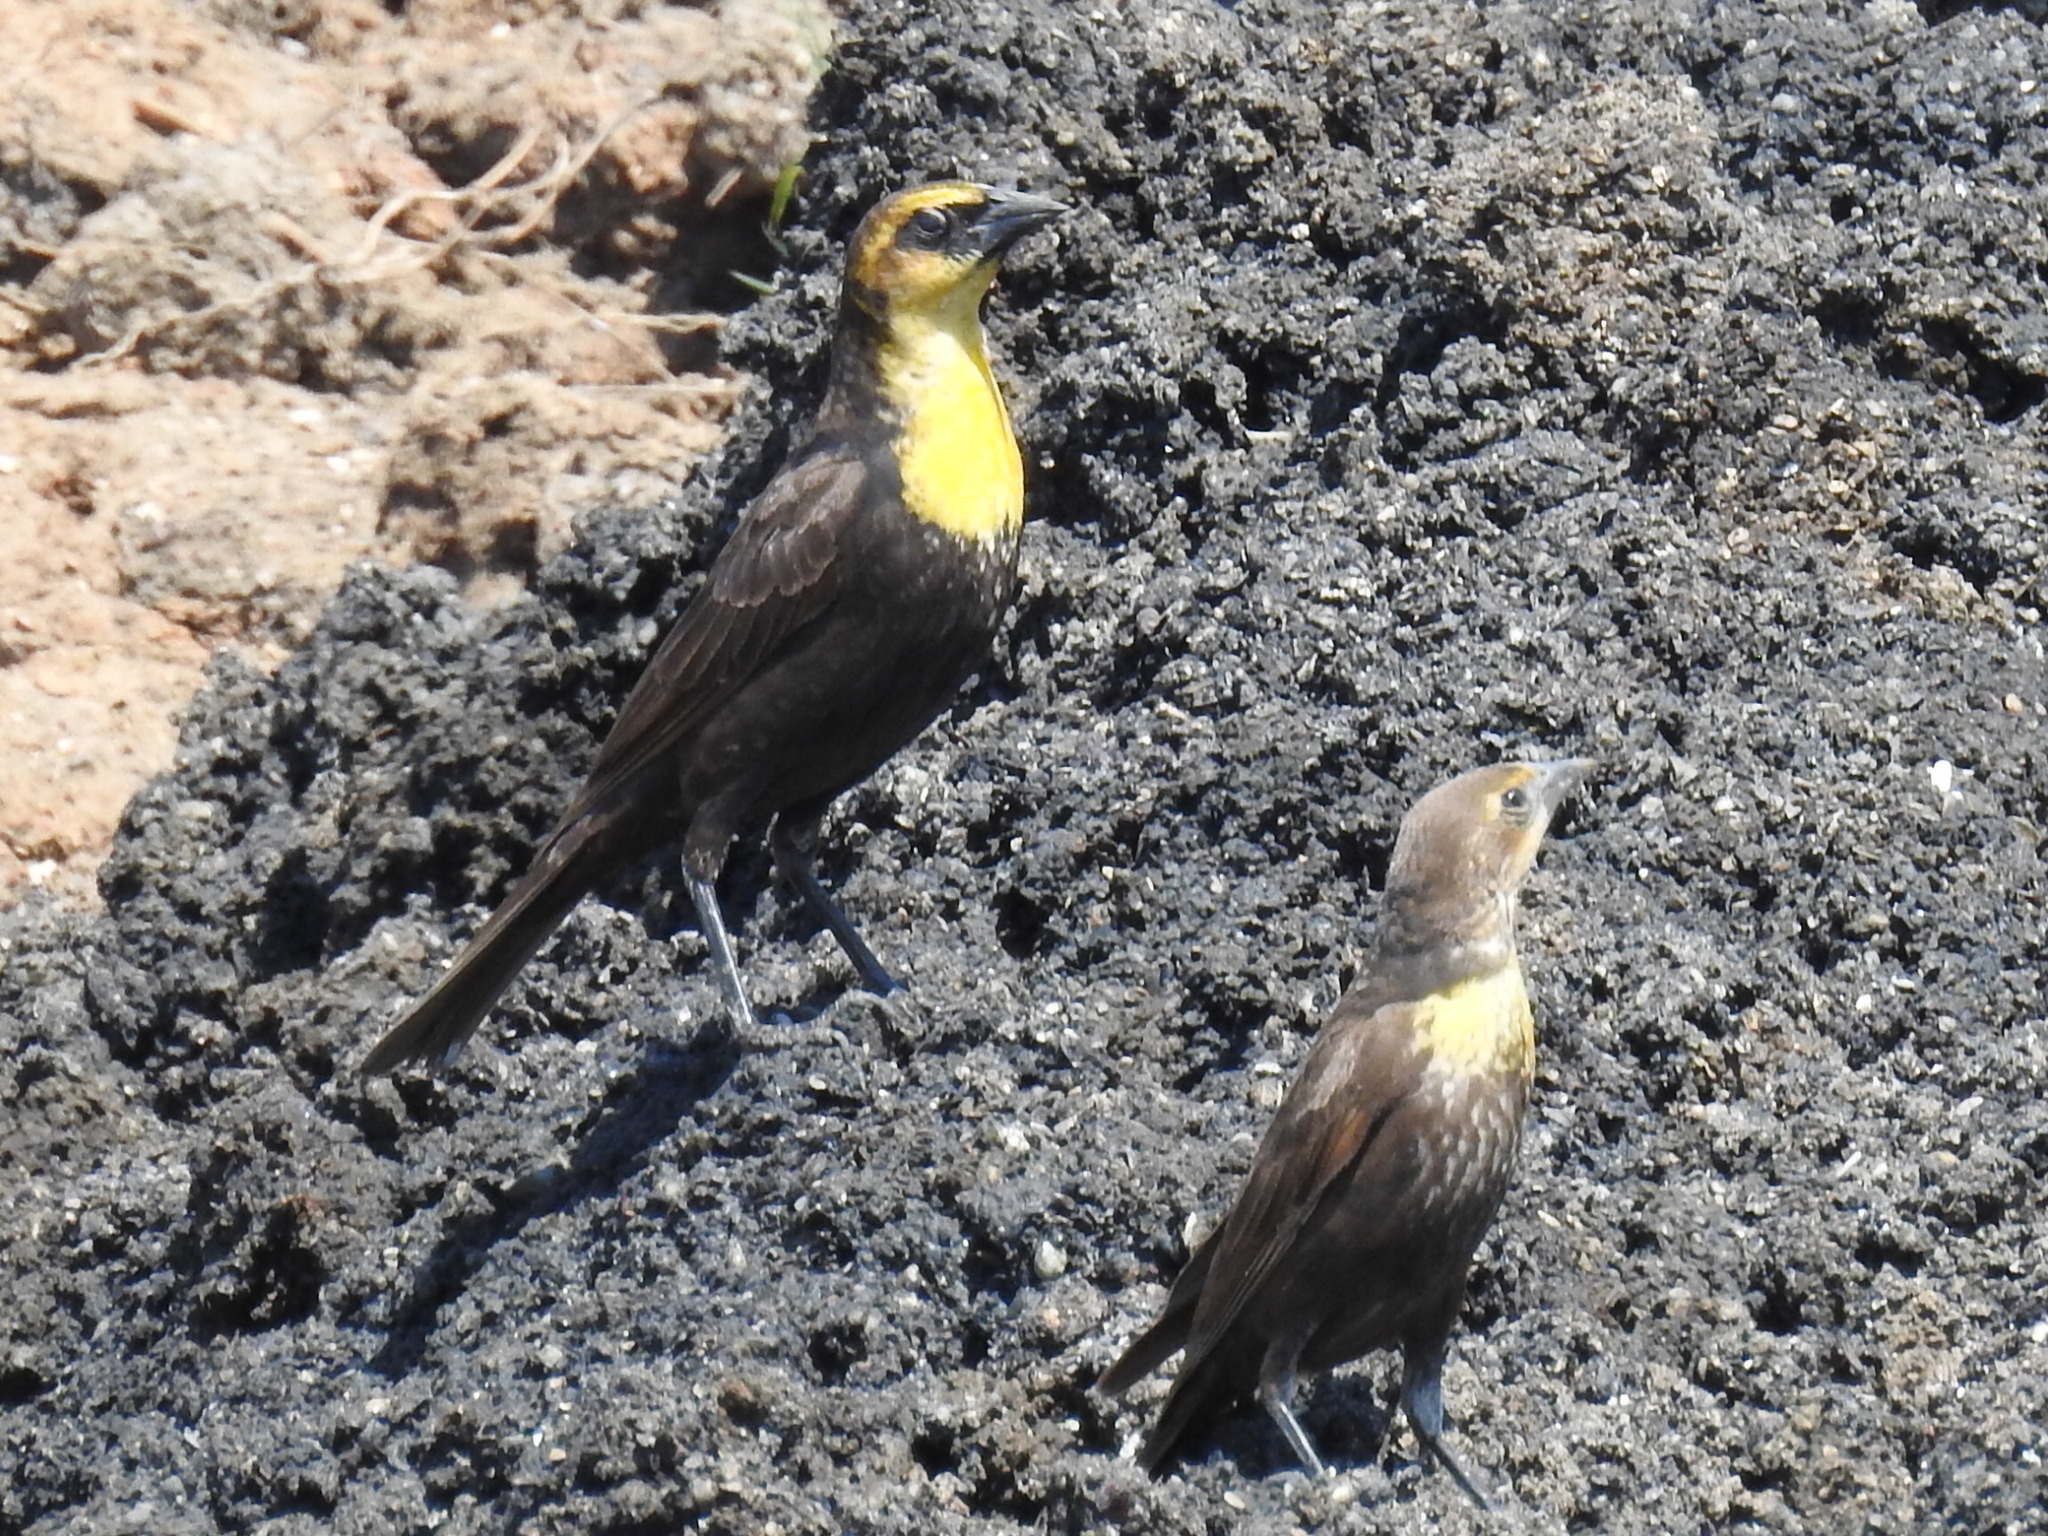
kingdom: Animalia
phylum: Chordata
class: Aves
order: Passeriformes
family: Icteridae
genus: Xanthocephalus
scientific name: Xanthocephalus xanthocephalus
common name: Yellow-headed blackbird
